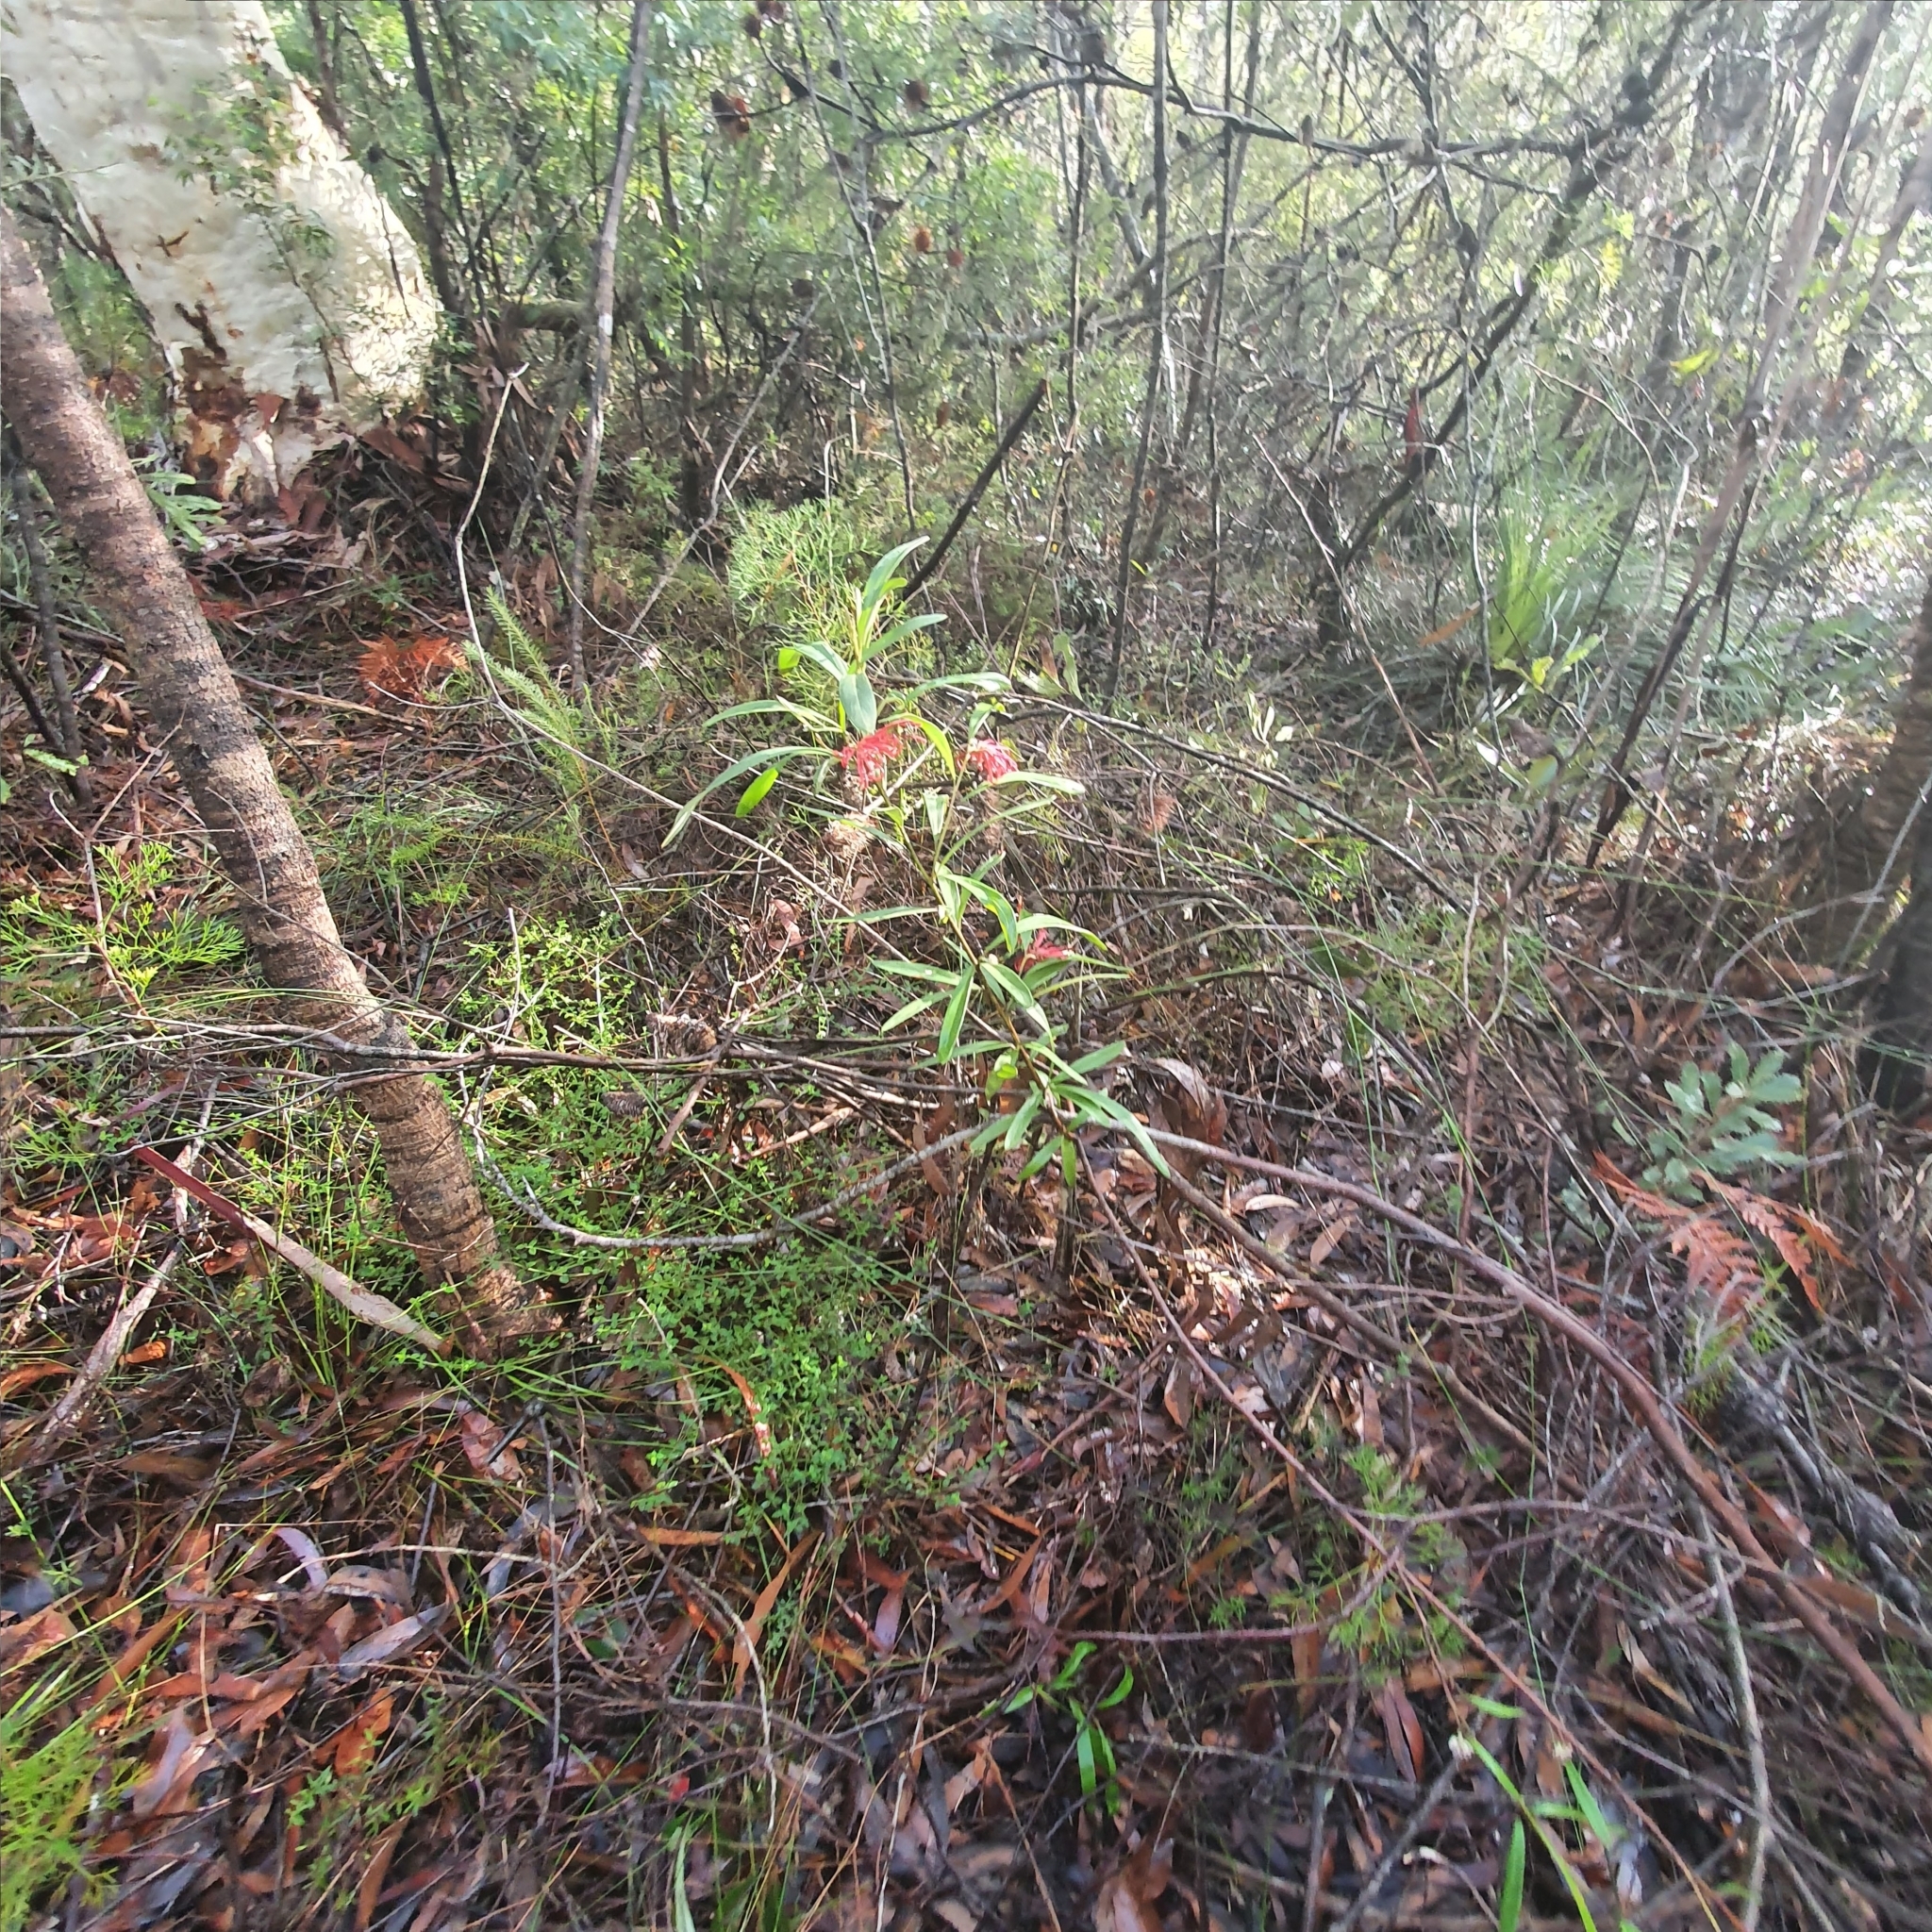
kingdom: Plantae
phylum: Tracheophyta
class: Magnoliopsida
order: Proteales
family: Proteaceae
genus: Grevillea
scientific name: Grevillea oleoides
